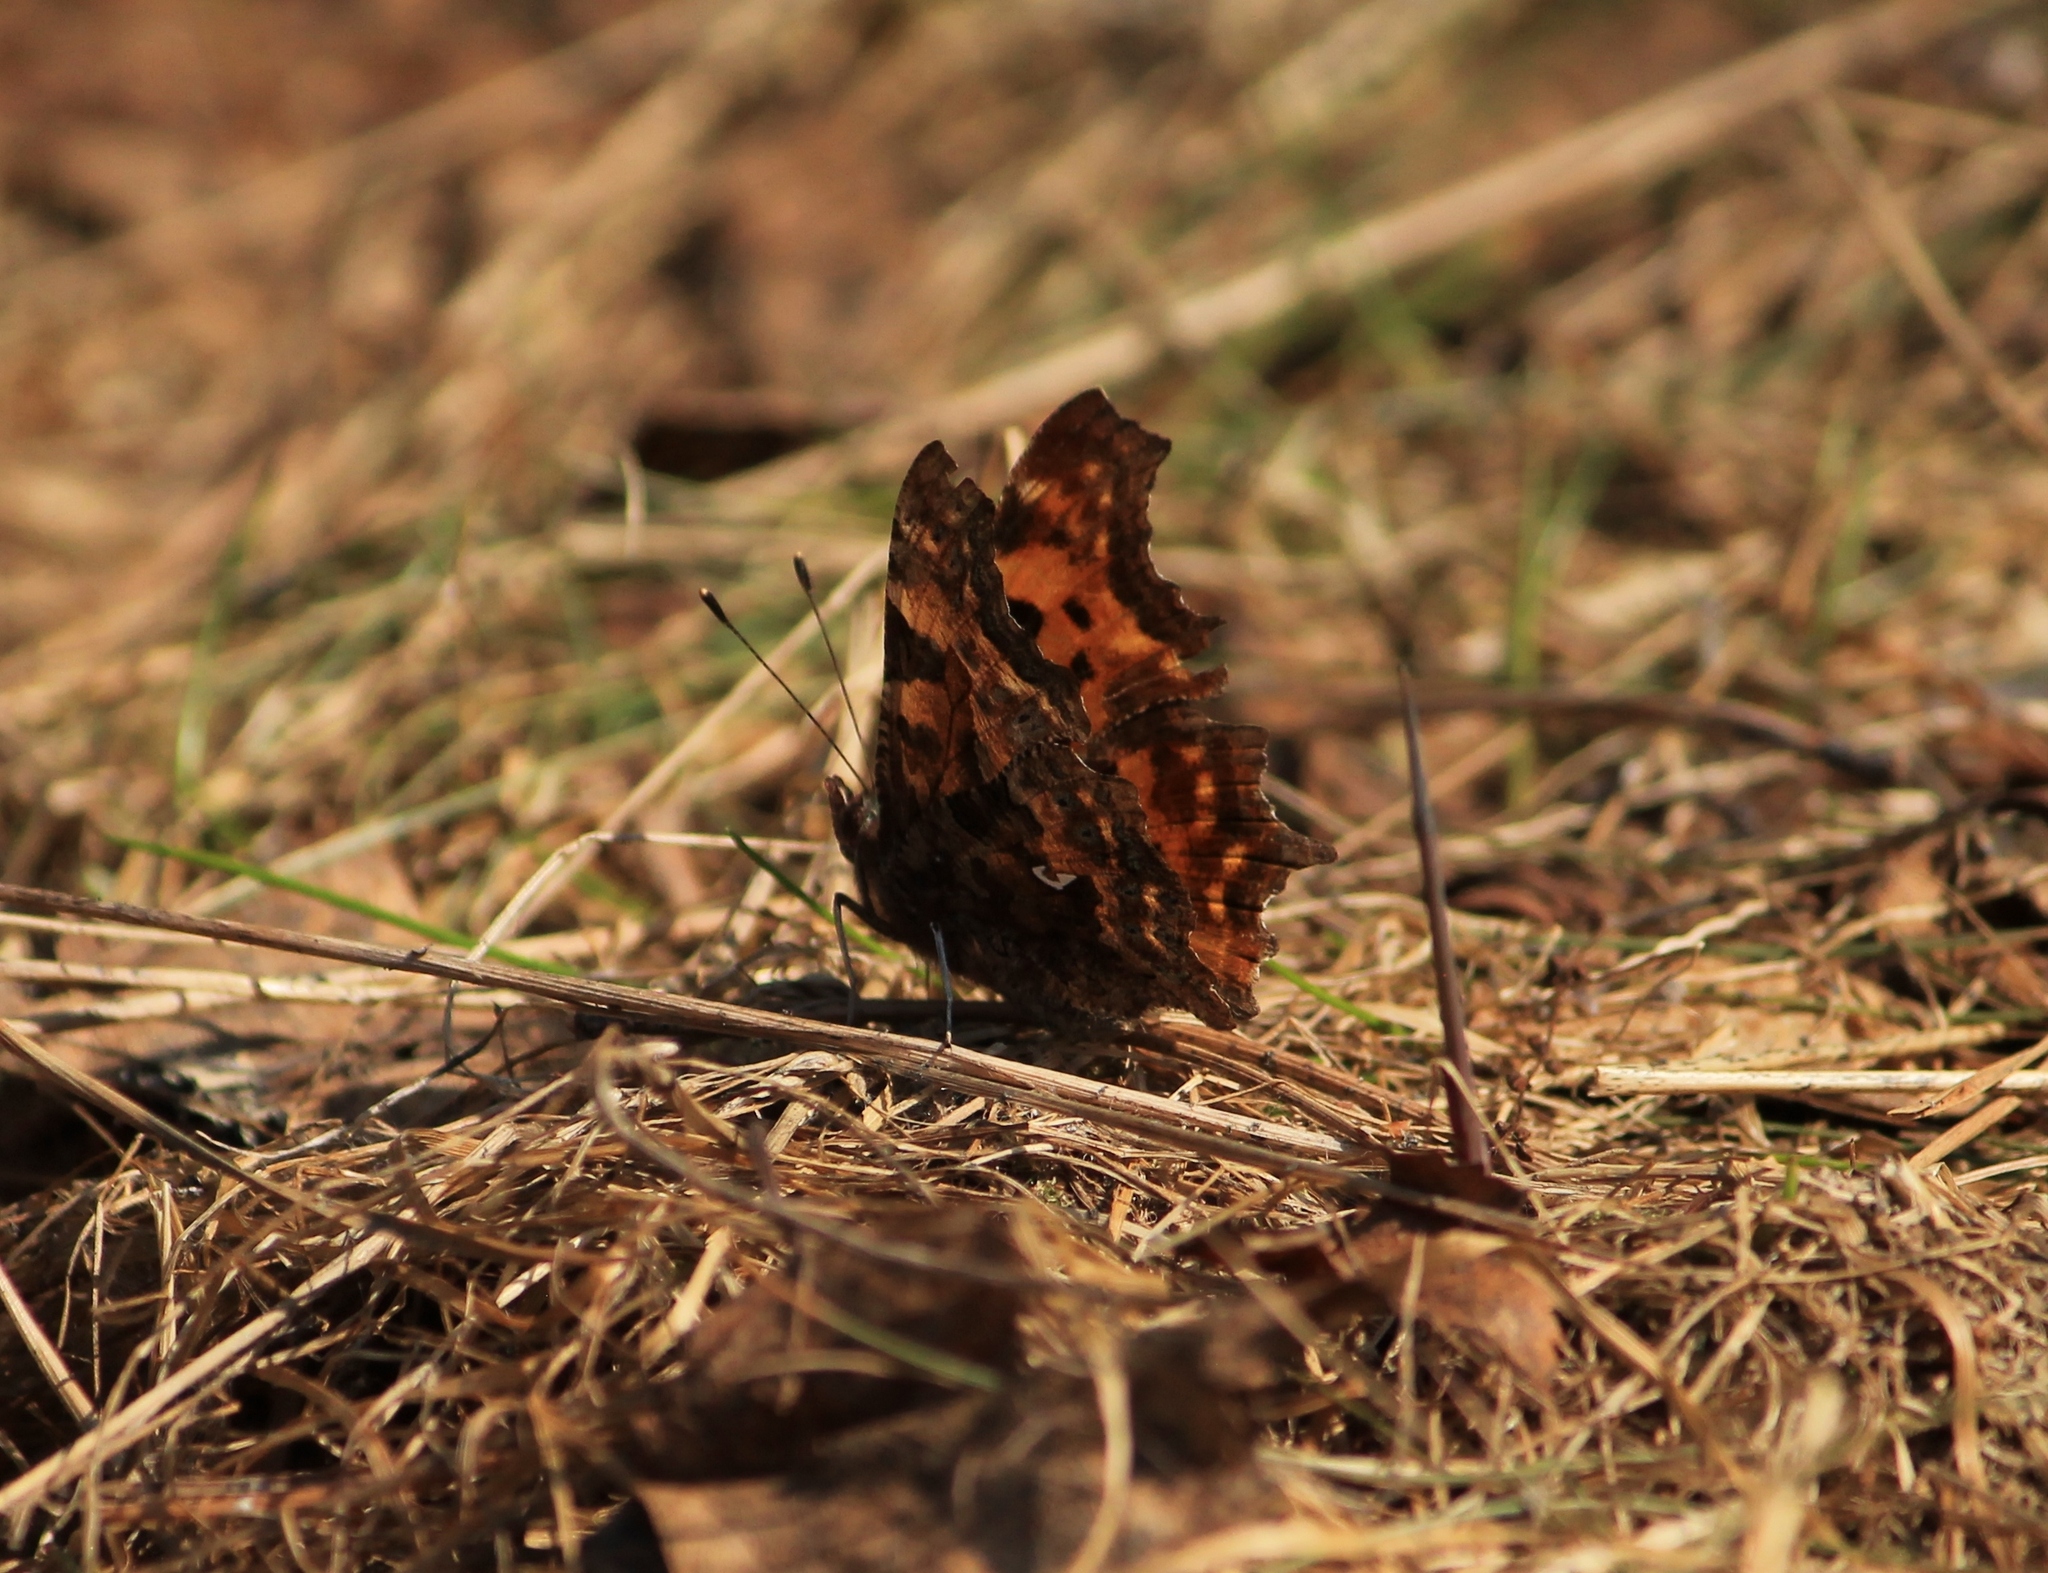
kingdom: Animalia
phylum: Arthropoda
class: Insecta
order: Lepidoptera
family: Nymphalidae
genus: Polygonia
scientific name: Polygonia c-album
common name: Comma
